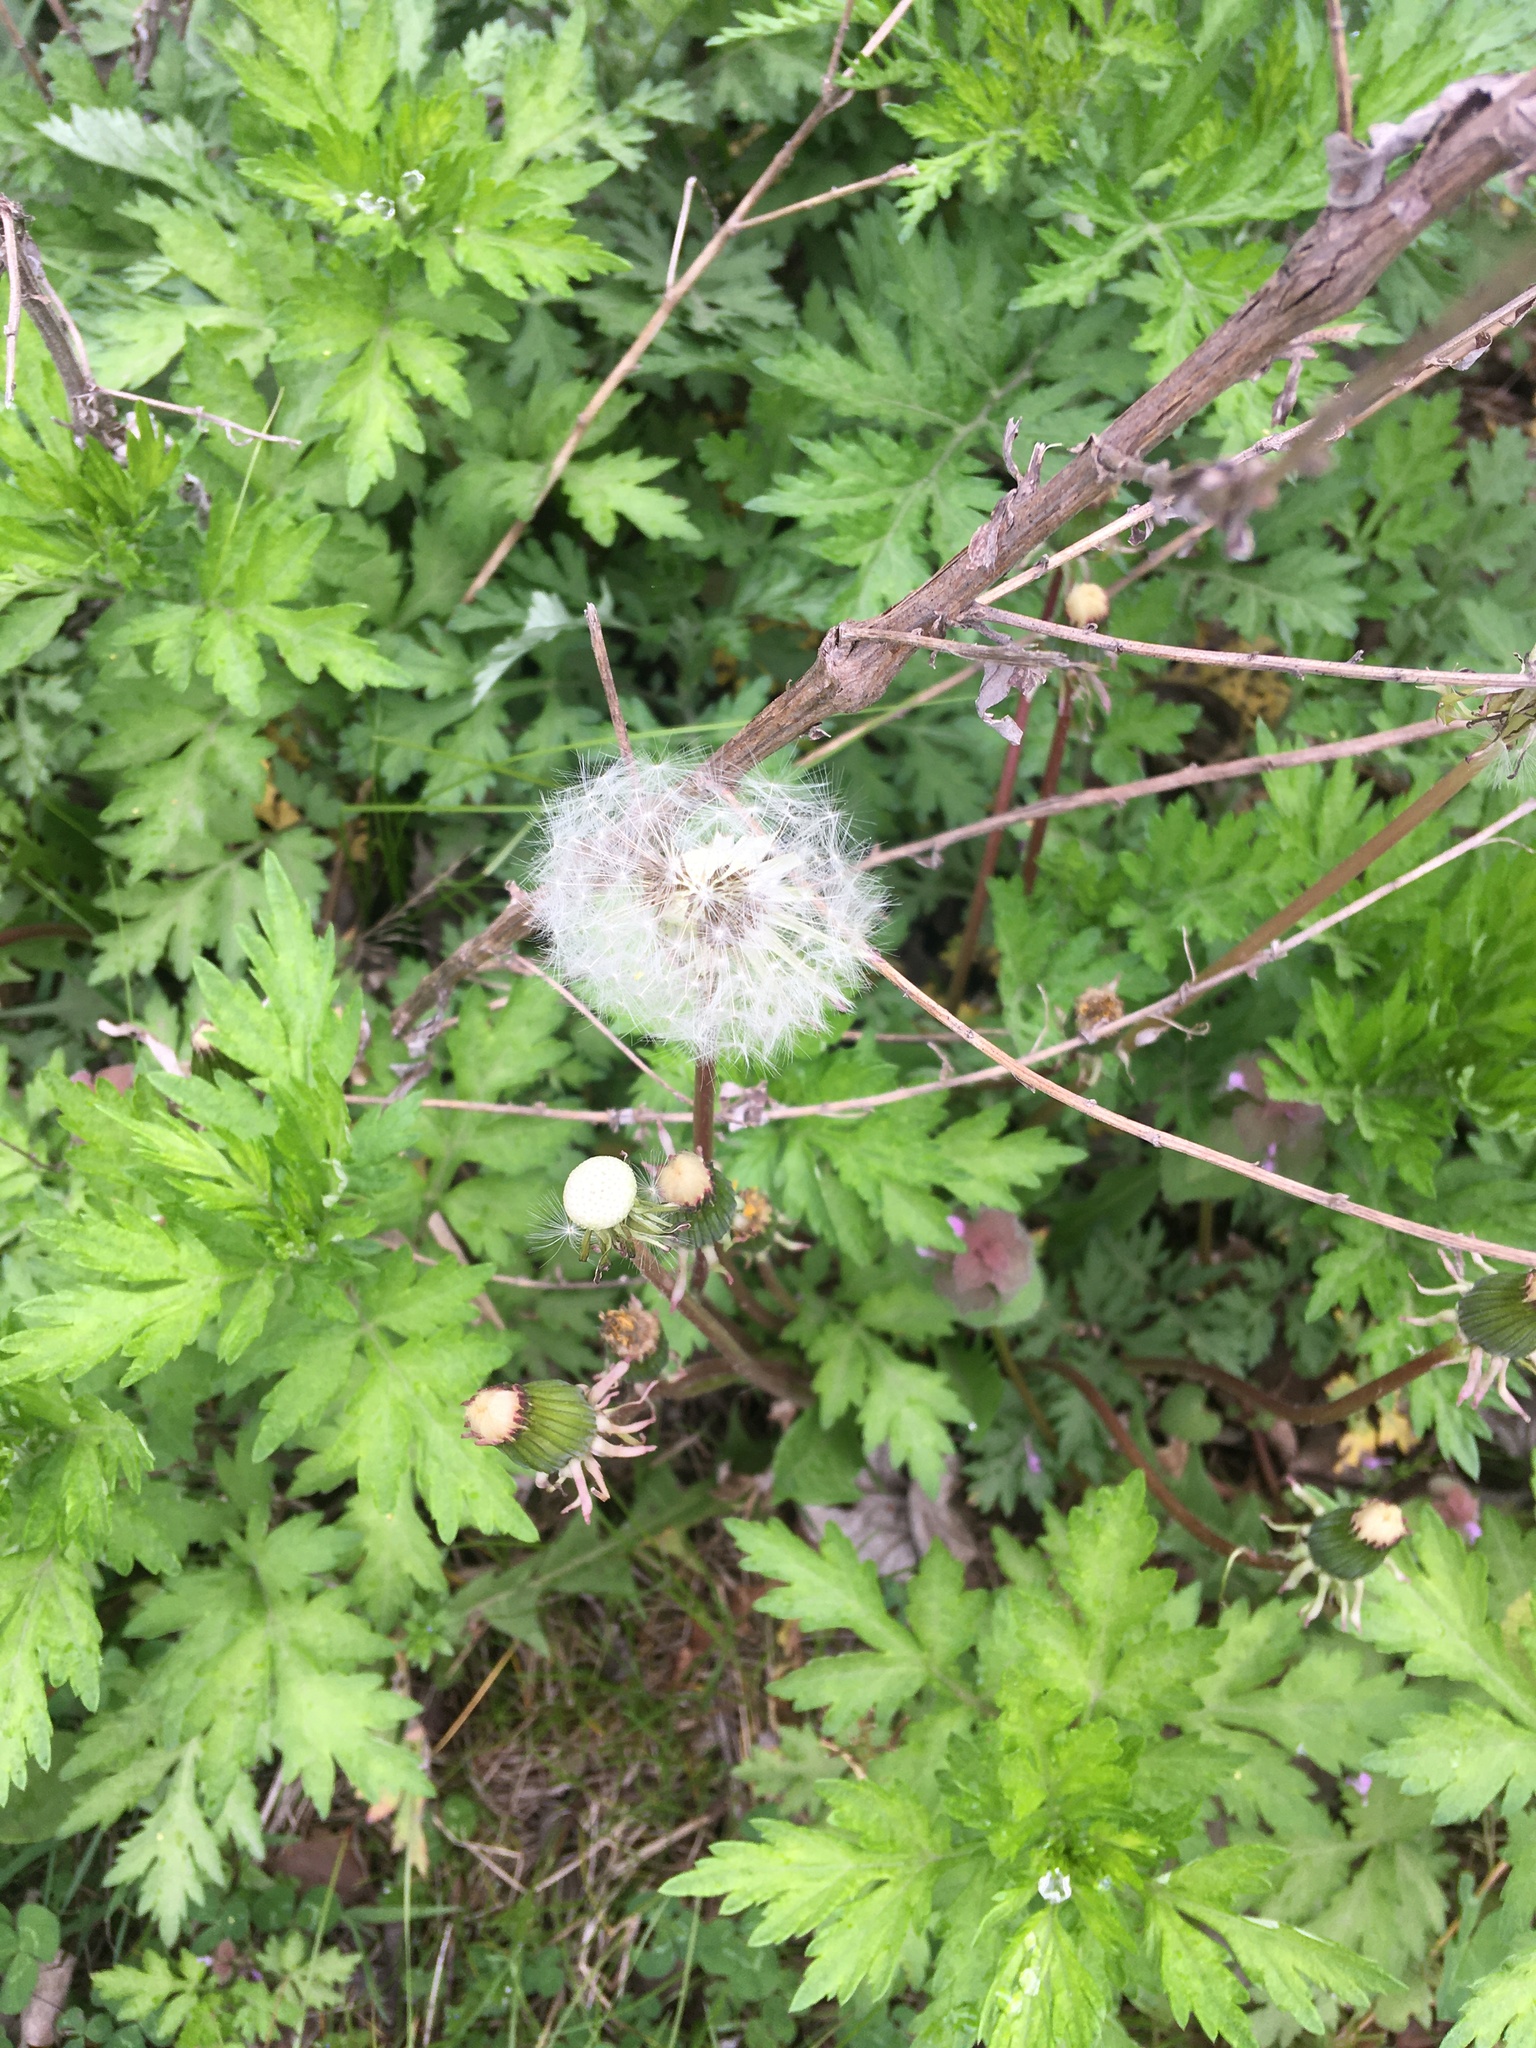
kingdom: Plantae
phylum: Tracheophyta
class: Magnoliopsida
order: Asterales
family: Asteraceae
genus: Taraxacum
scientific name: Taraxacum officinale
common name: Common dandelion
